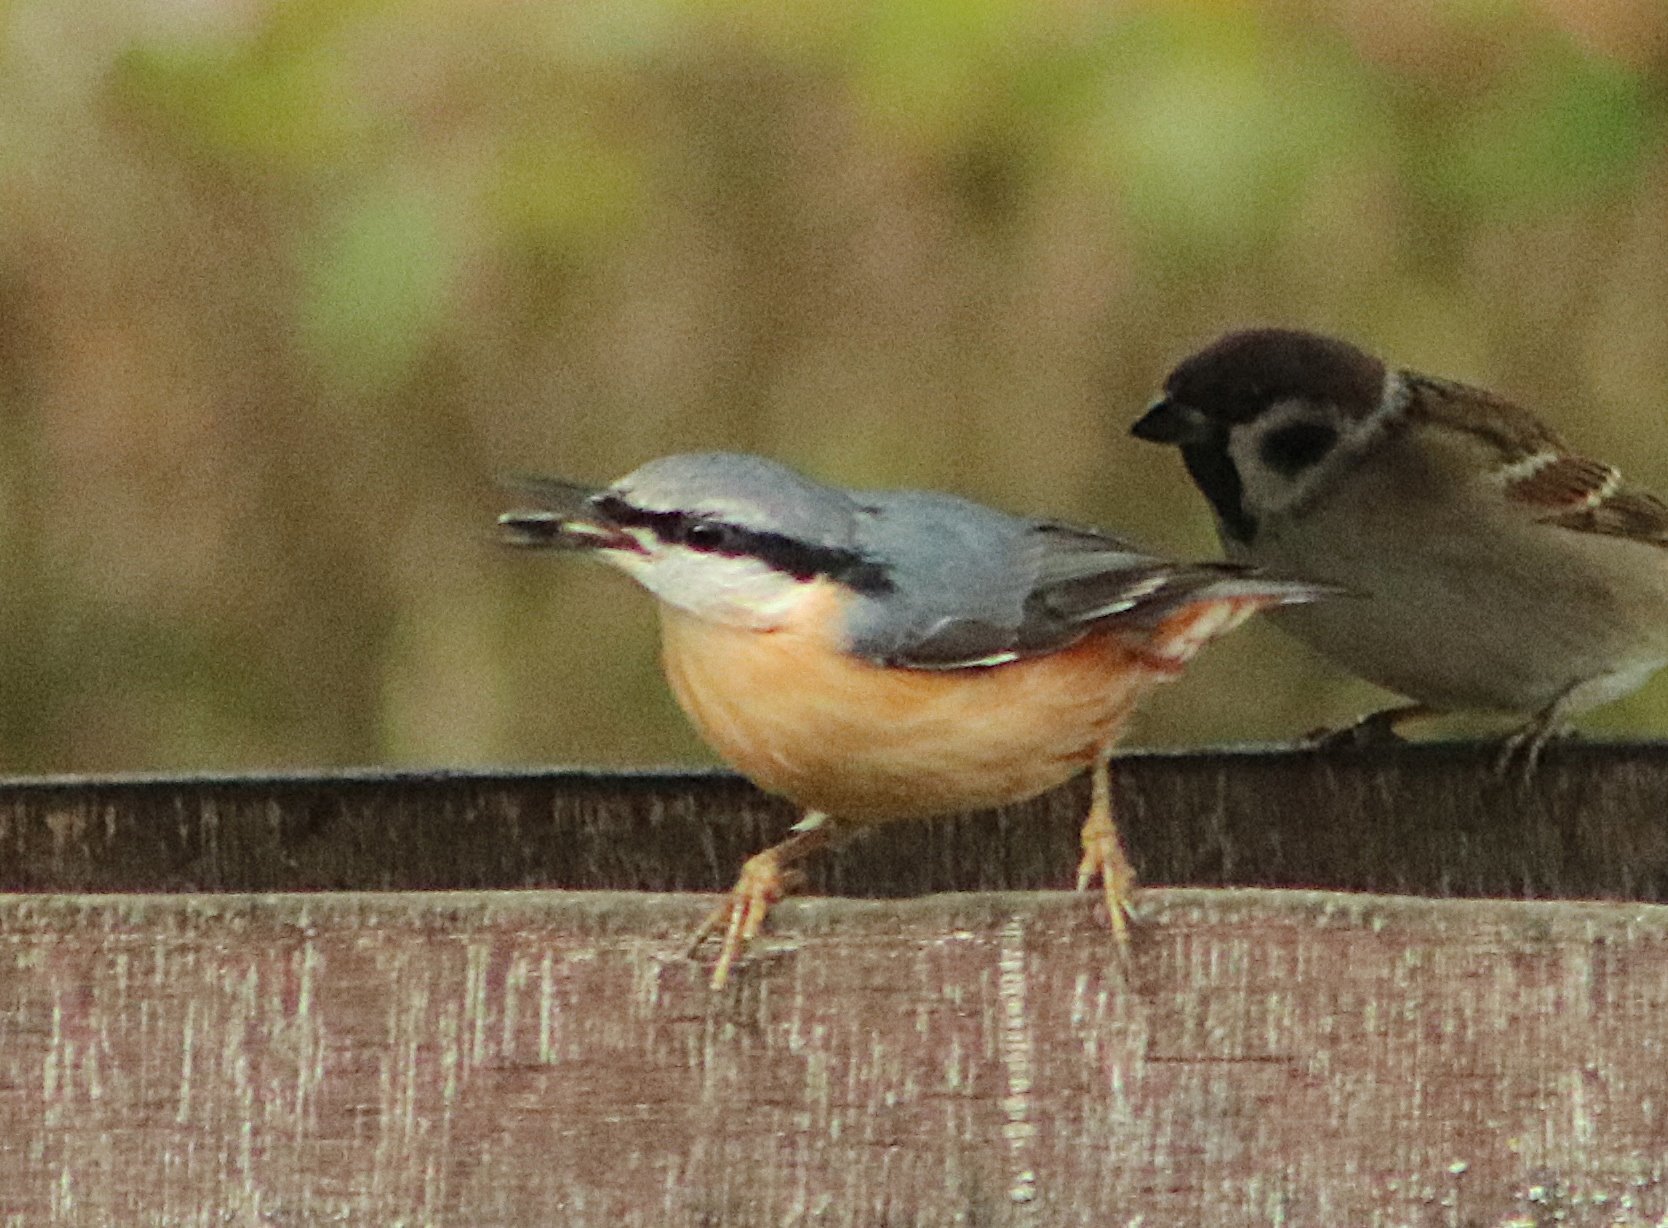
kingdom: Animalia
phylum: Chordata
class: Aves
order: Passeriformes
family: Sittidae
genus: Sitta
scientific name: Sitta europaea
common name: Eurasian nuthatch
